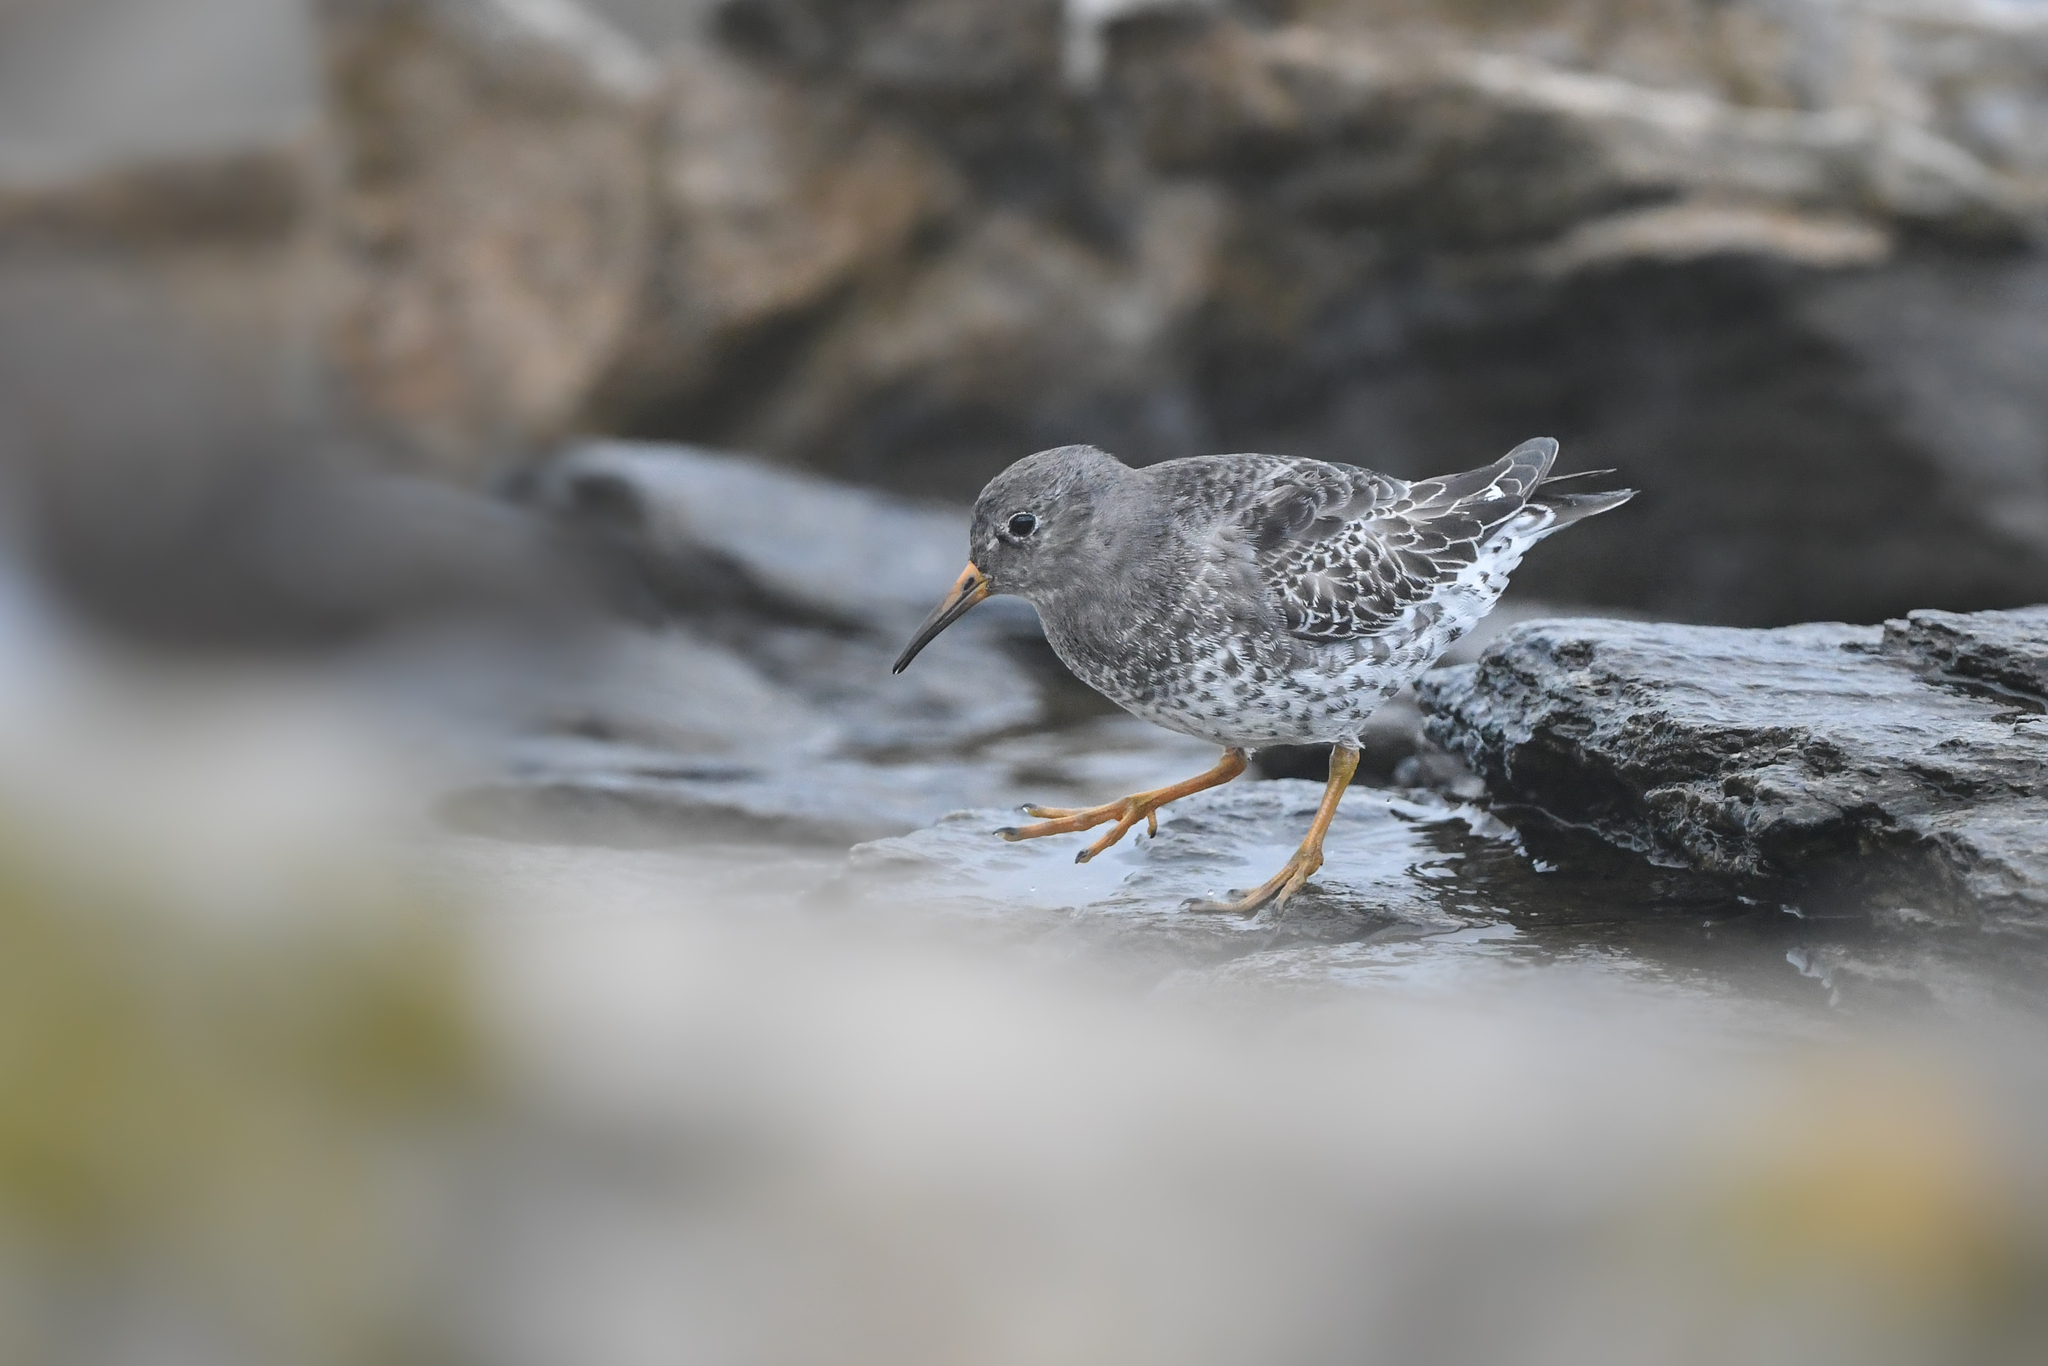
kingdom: Animalia
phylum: Chordata
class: Aves
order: Charadriiformes
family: Scolopacidae
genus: Calidris
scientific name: Calidris maritima
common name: Purple sandpiper
